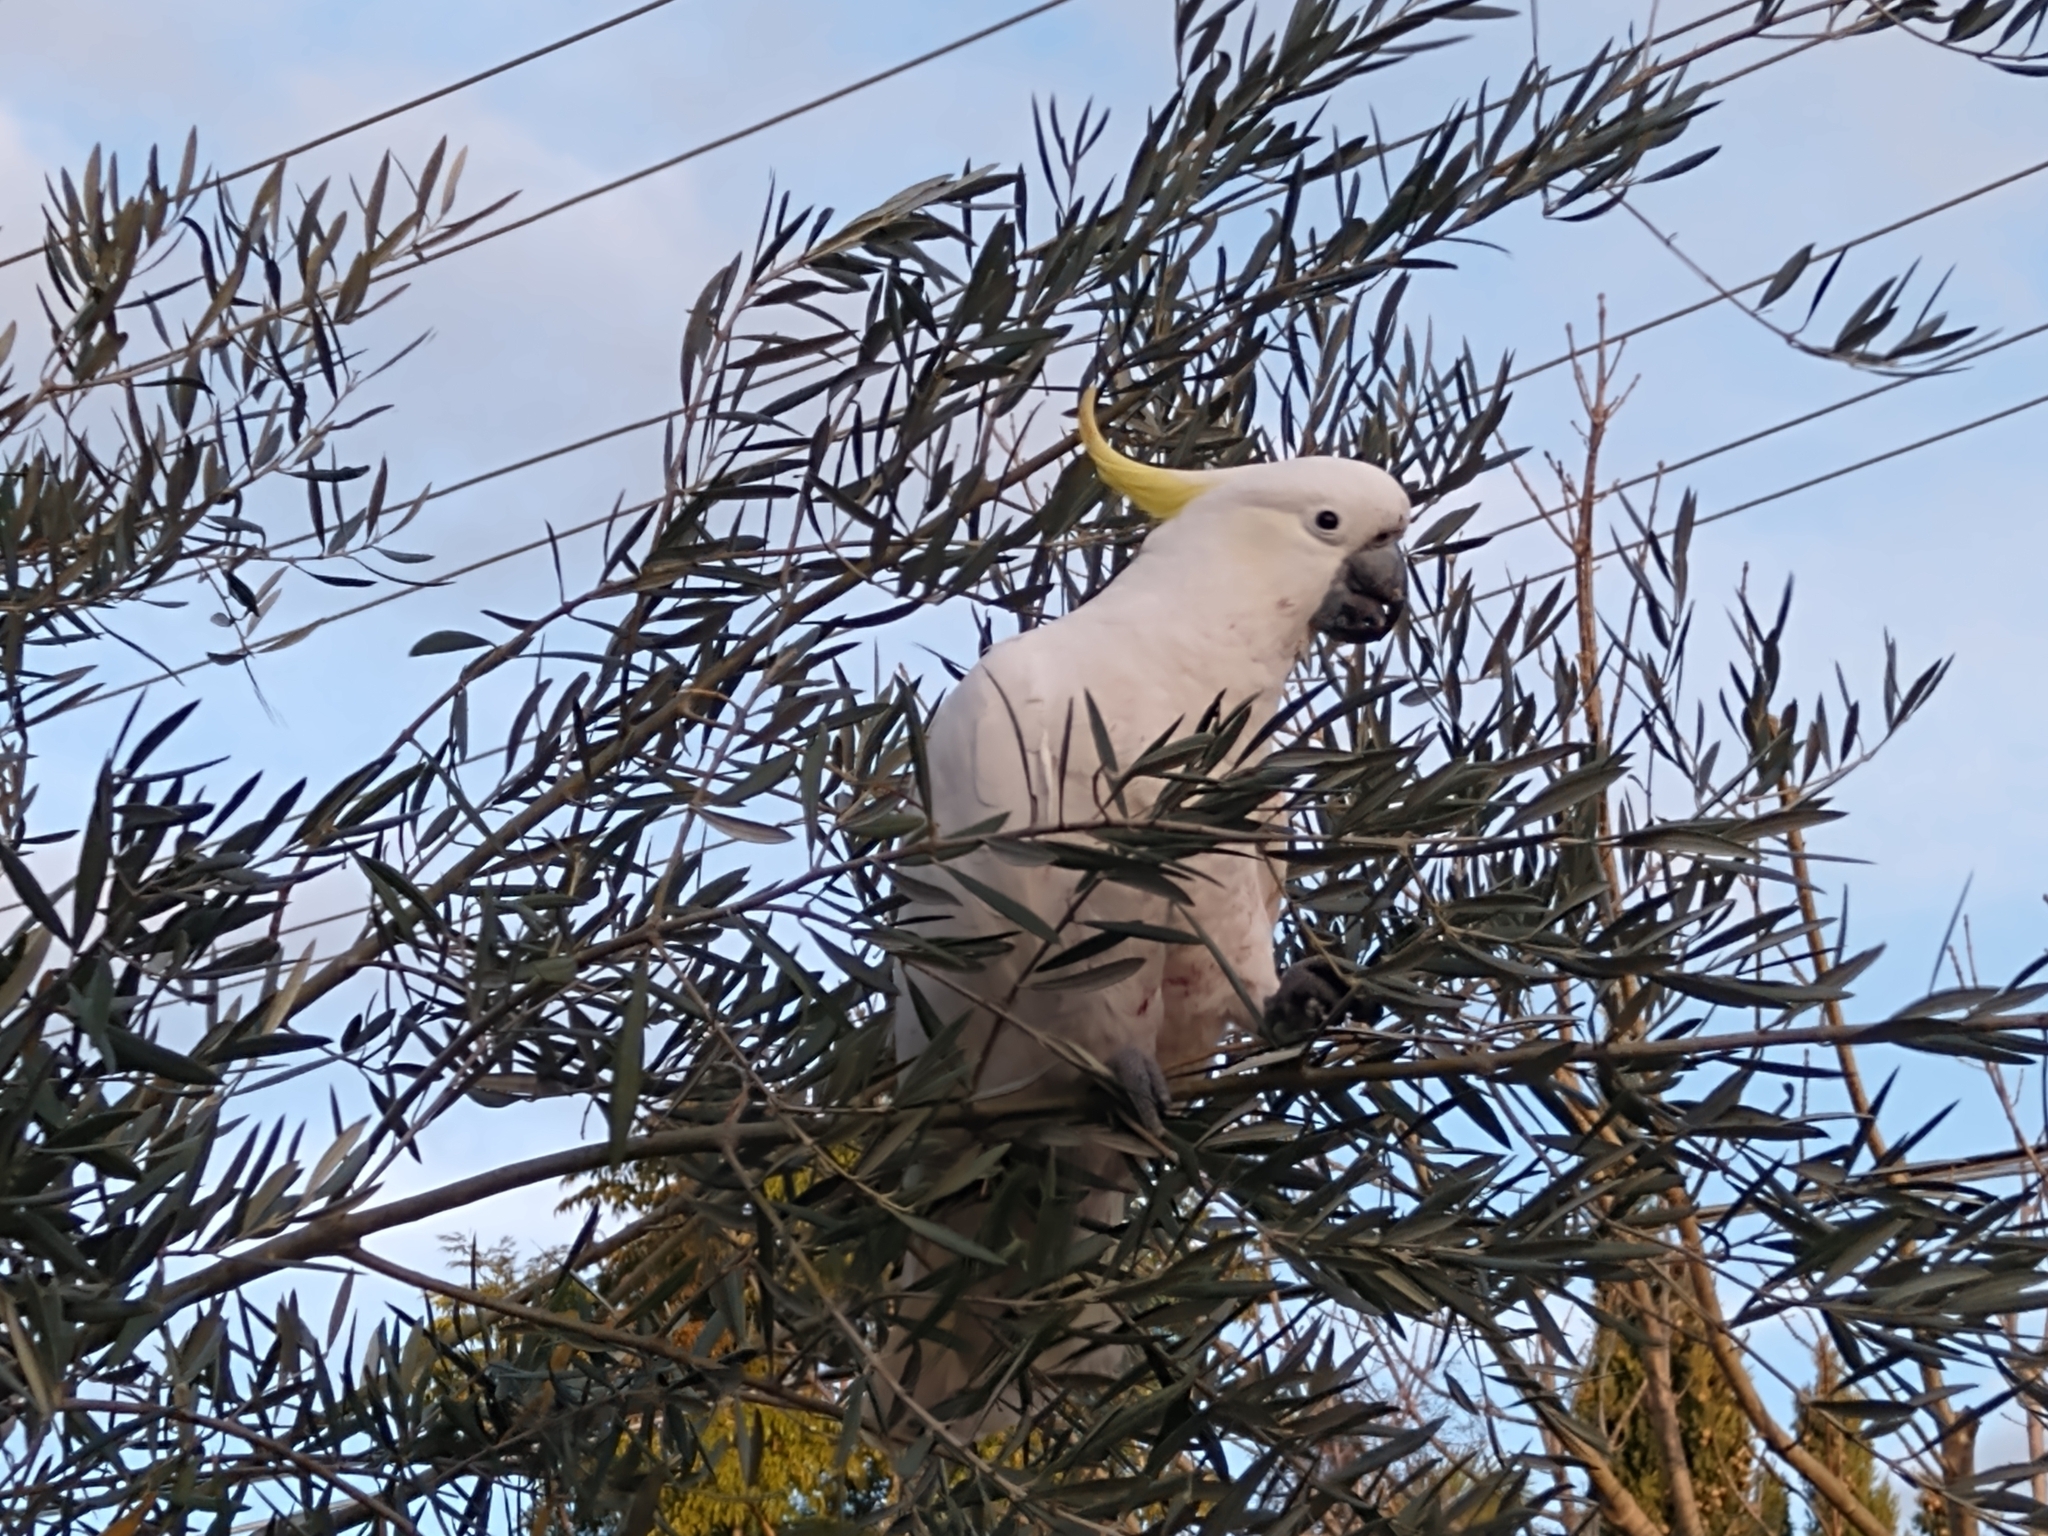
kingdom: Animalia
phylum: Chordata
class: Aves
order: Psittaciformes
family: Psittacidae
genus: Cacatua
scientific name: Cacatua galerita
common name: Sulphur-crested cockatoo
